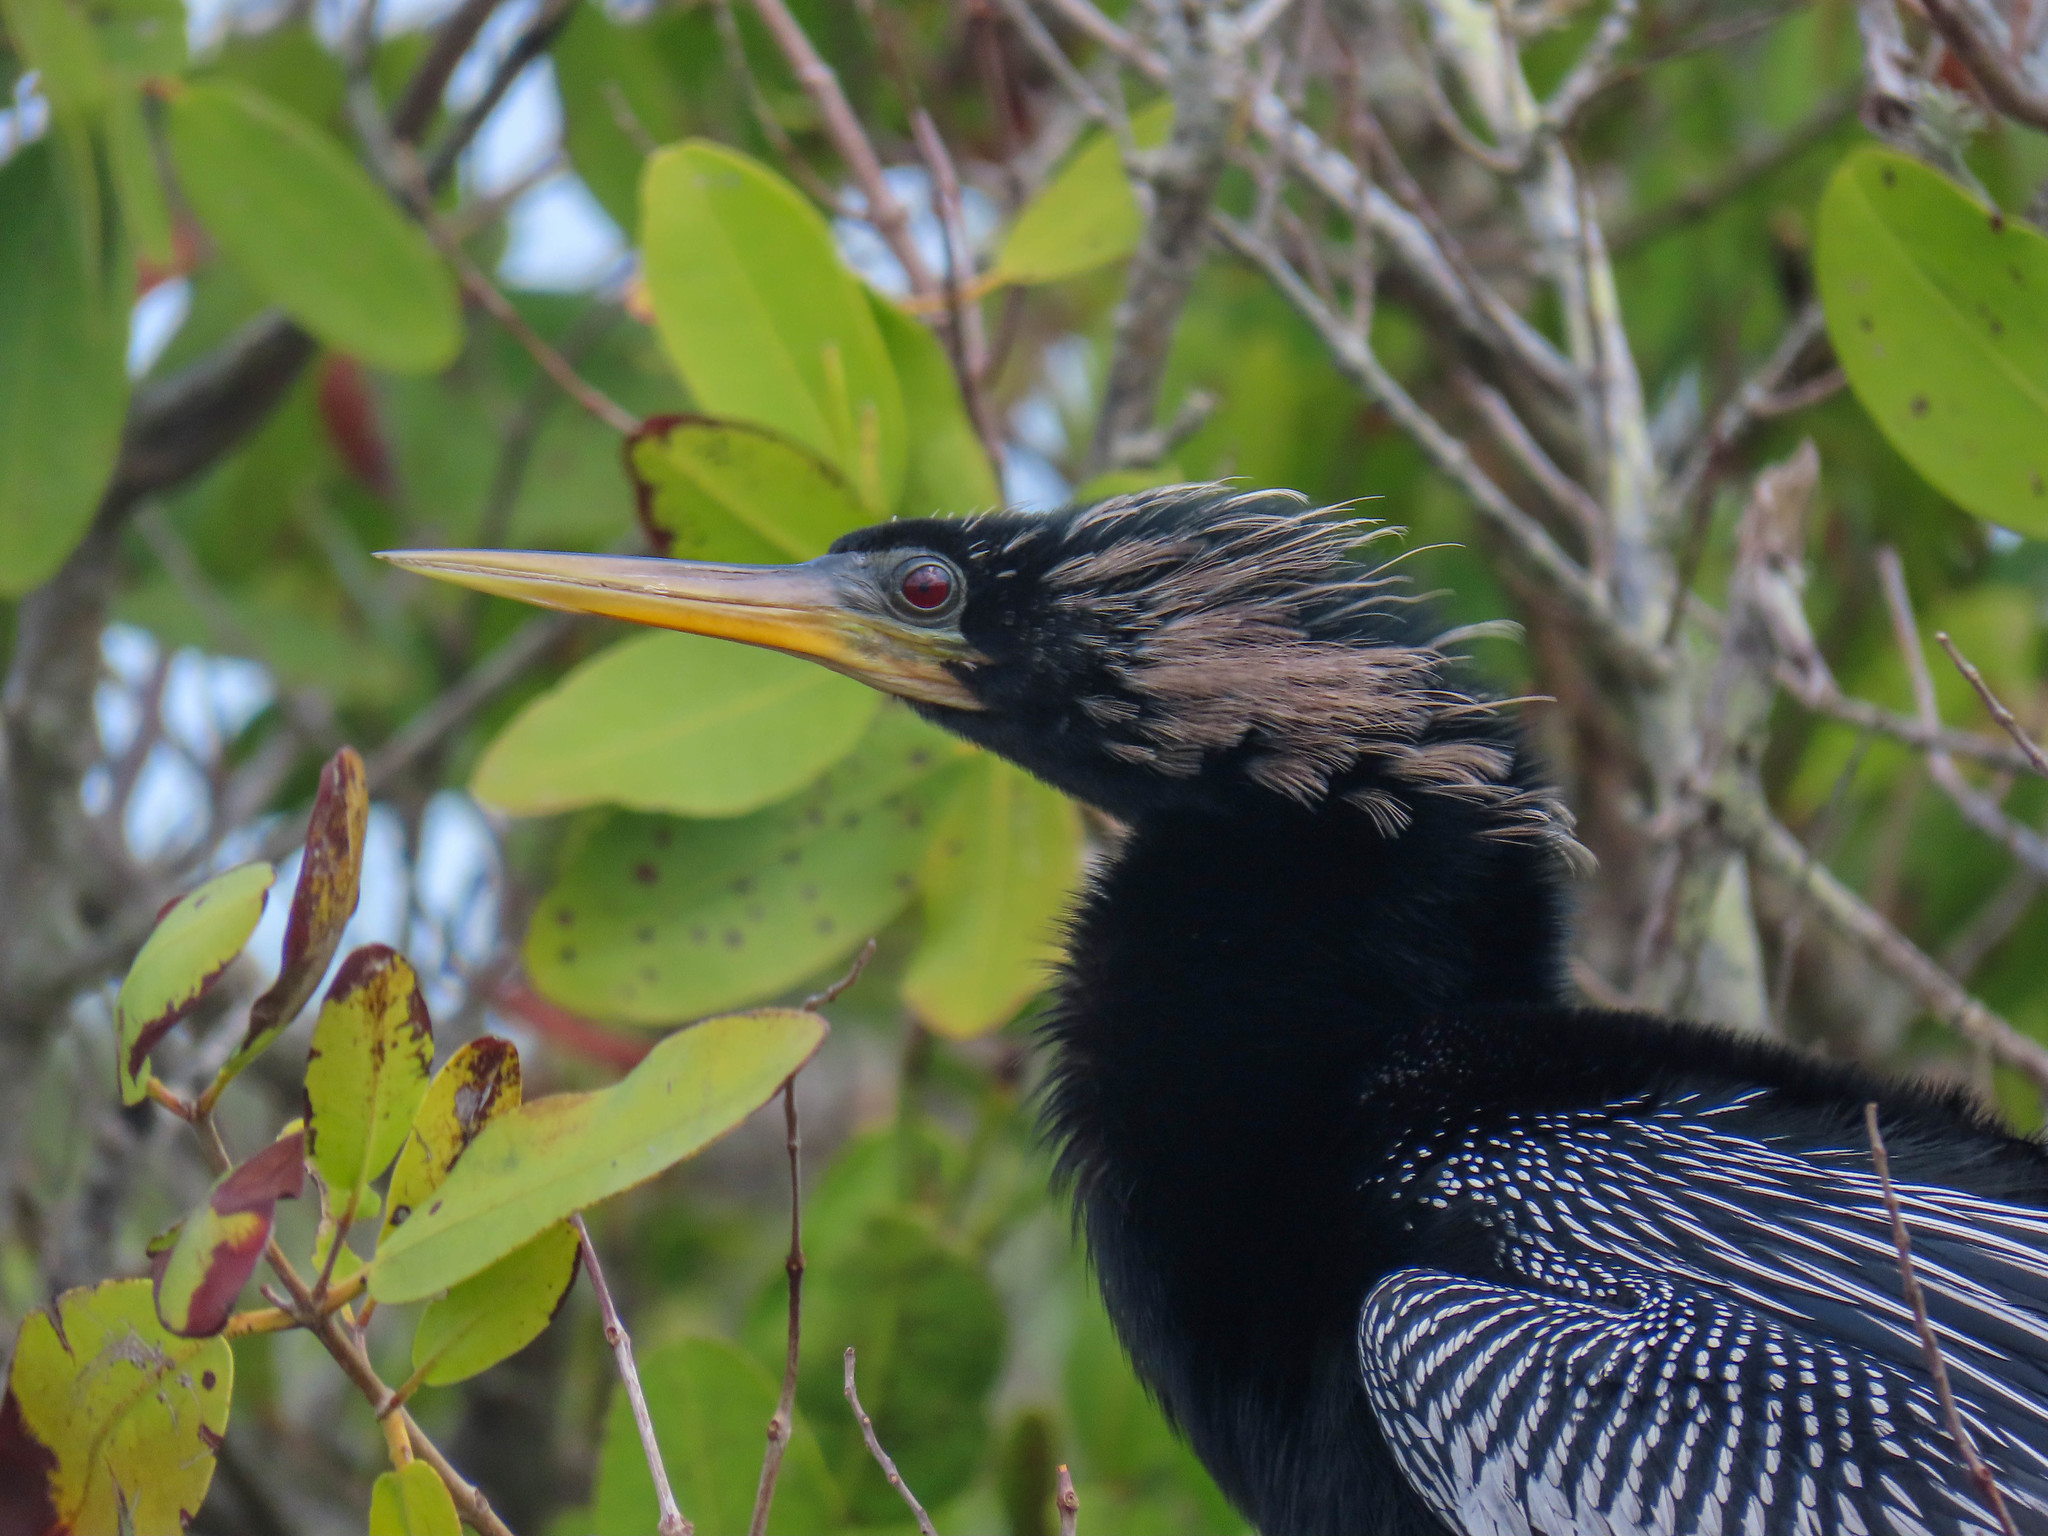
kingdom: Animalia
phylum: Chordata
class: Aves
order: Suliformes
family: Anhingidae
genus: Anhinga
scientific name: Anhinga anhinga
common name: Anhinga
